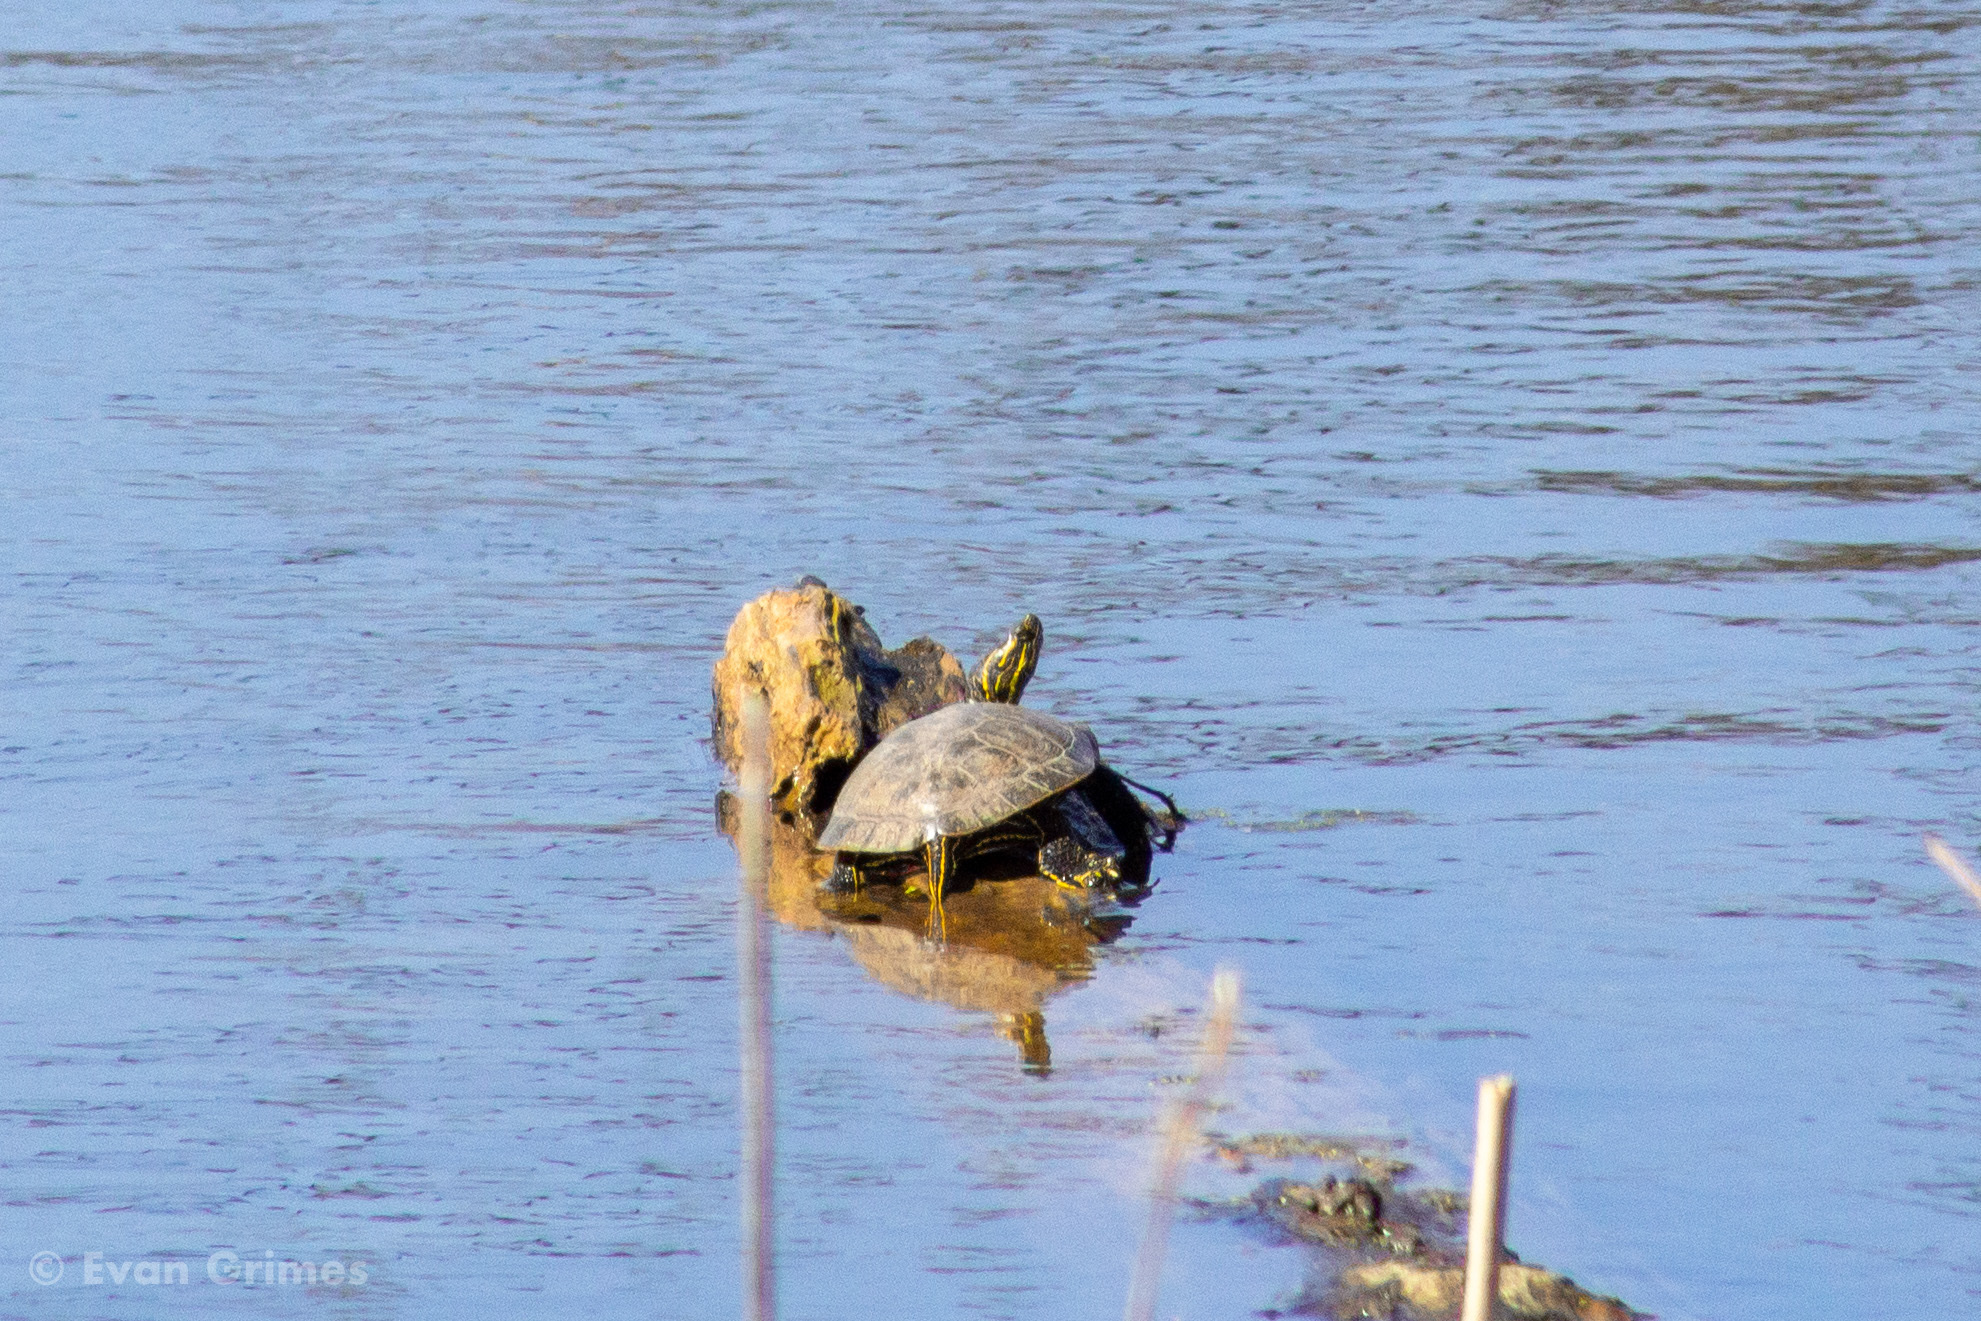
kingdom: Animalia
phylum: Chordata
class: Testudines
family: Emydidae
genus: Chrysemys
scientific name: Chrysemys picta
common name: Painted turtle
